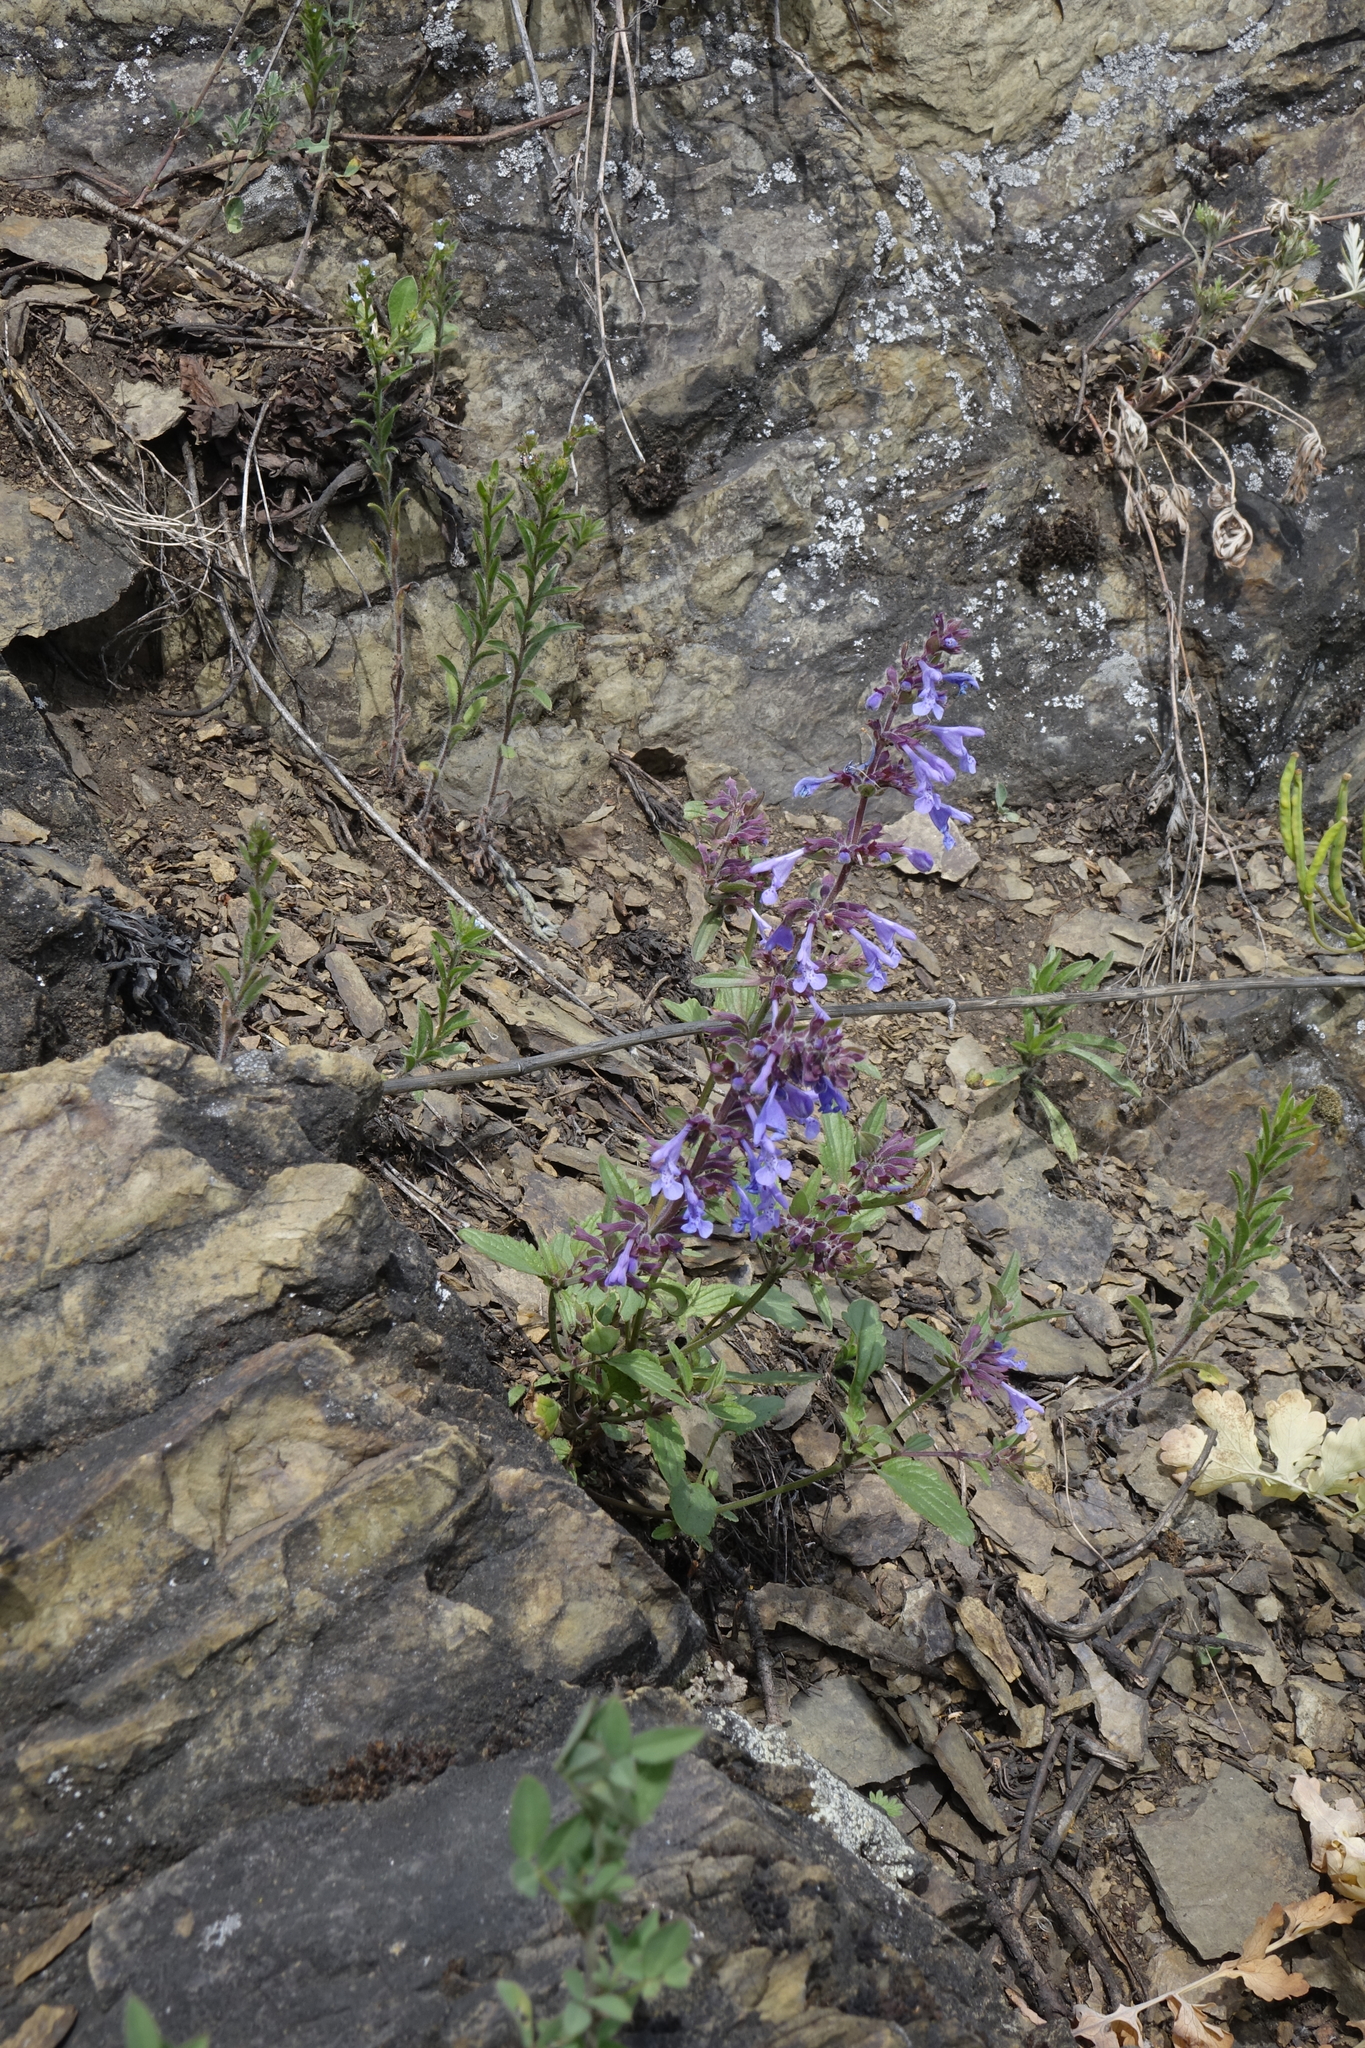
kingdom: Plantae
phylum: Tracheophyta
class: Magnoliopsida
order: Lamiales
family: Lamiaceae
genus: Dracocephalum
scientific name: Dracocephalum nutans
